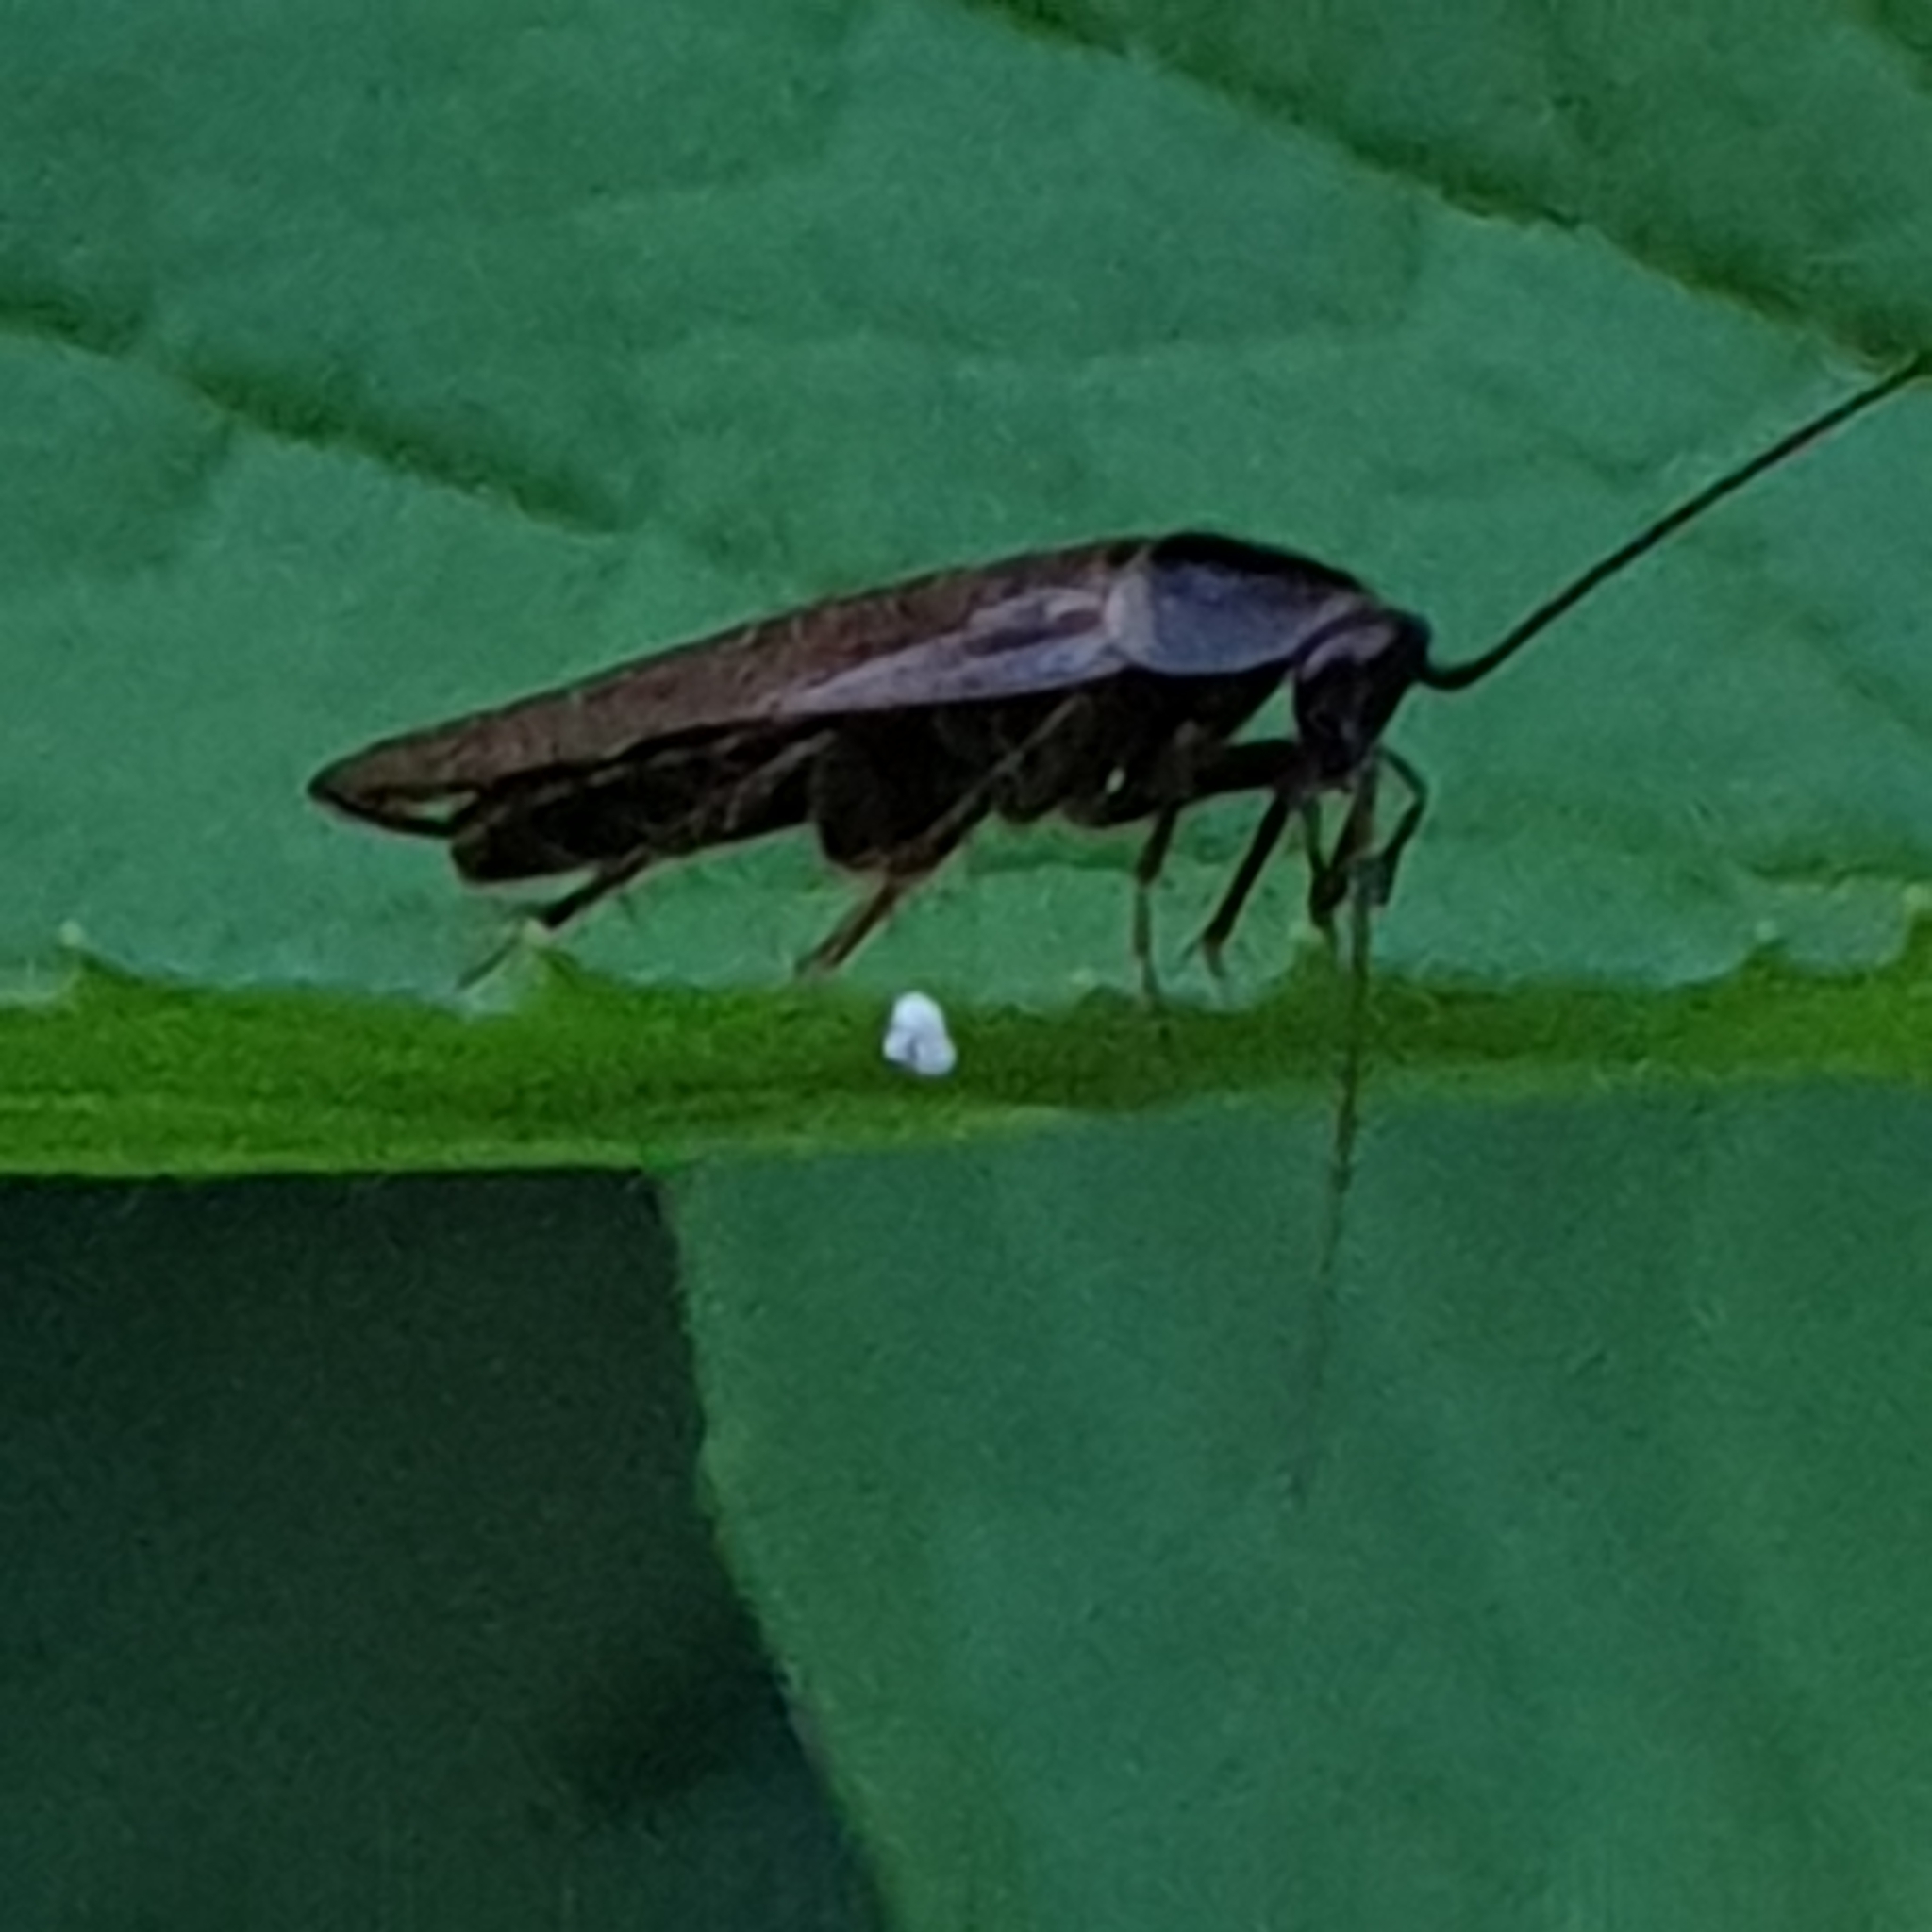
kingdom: Animalia
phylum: Arthropoda
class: Insecta
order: Blattodea
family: Ectobiidae
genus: Ectobius
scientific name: Ectobius lapponicus
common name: Dusky cockroach
